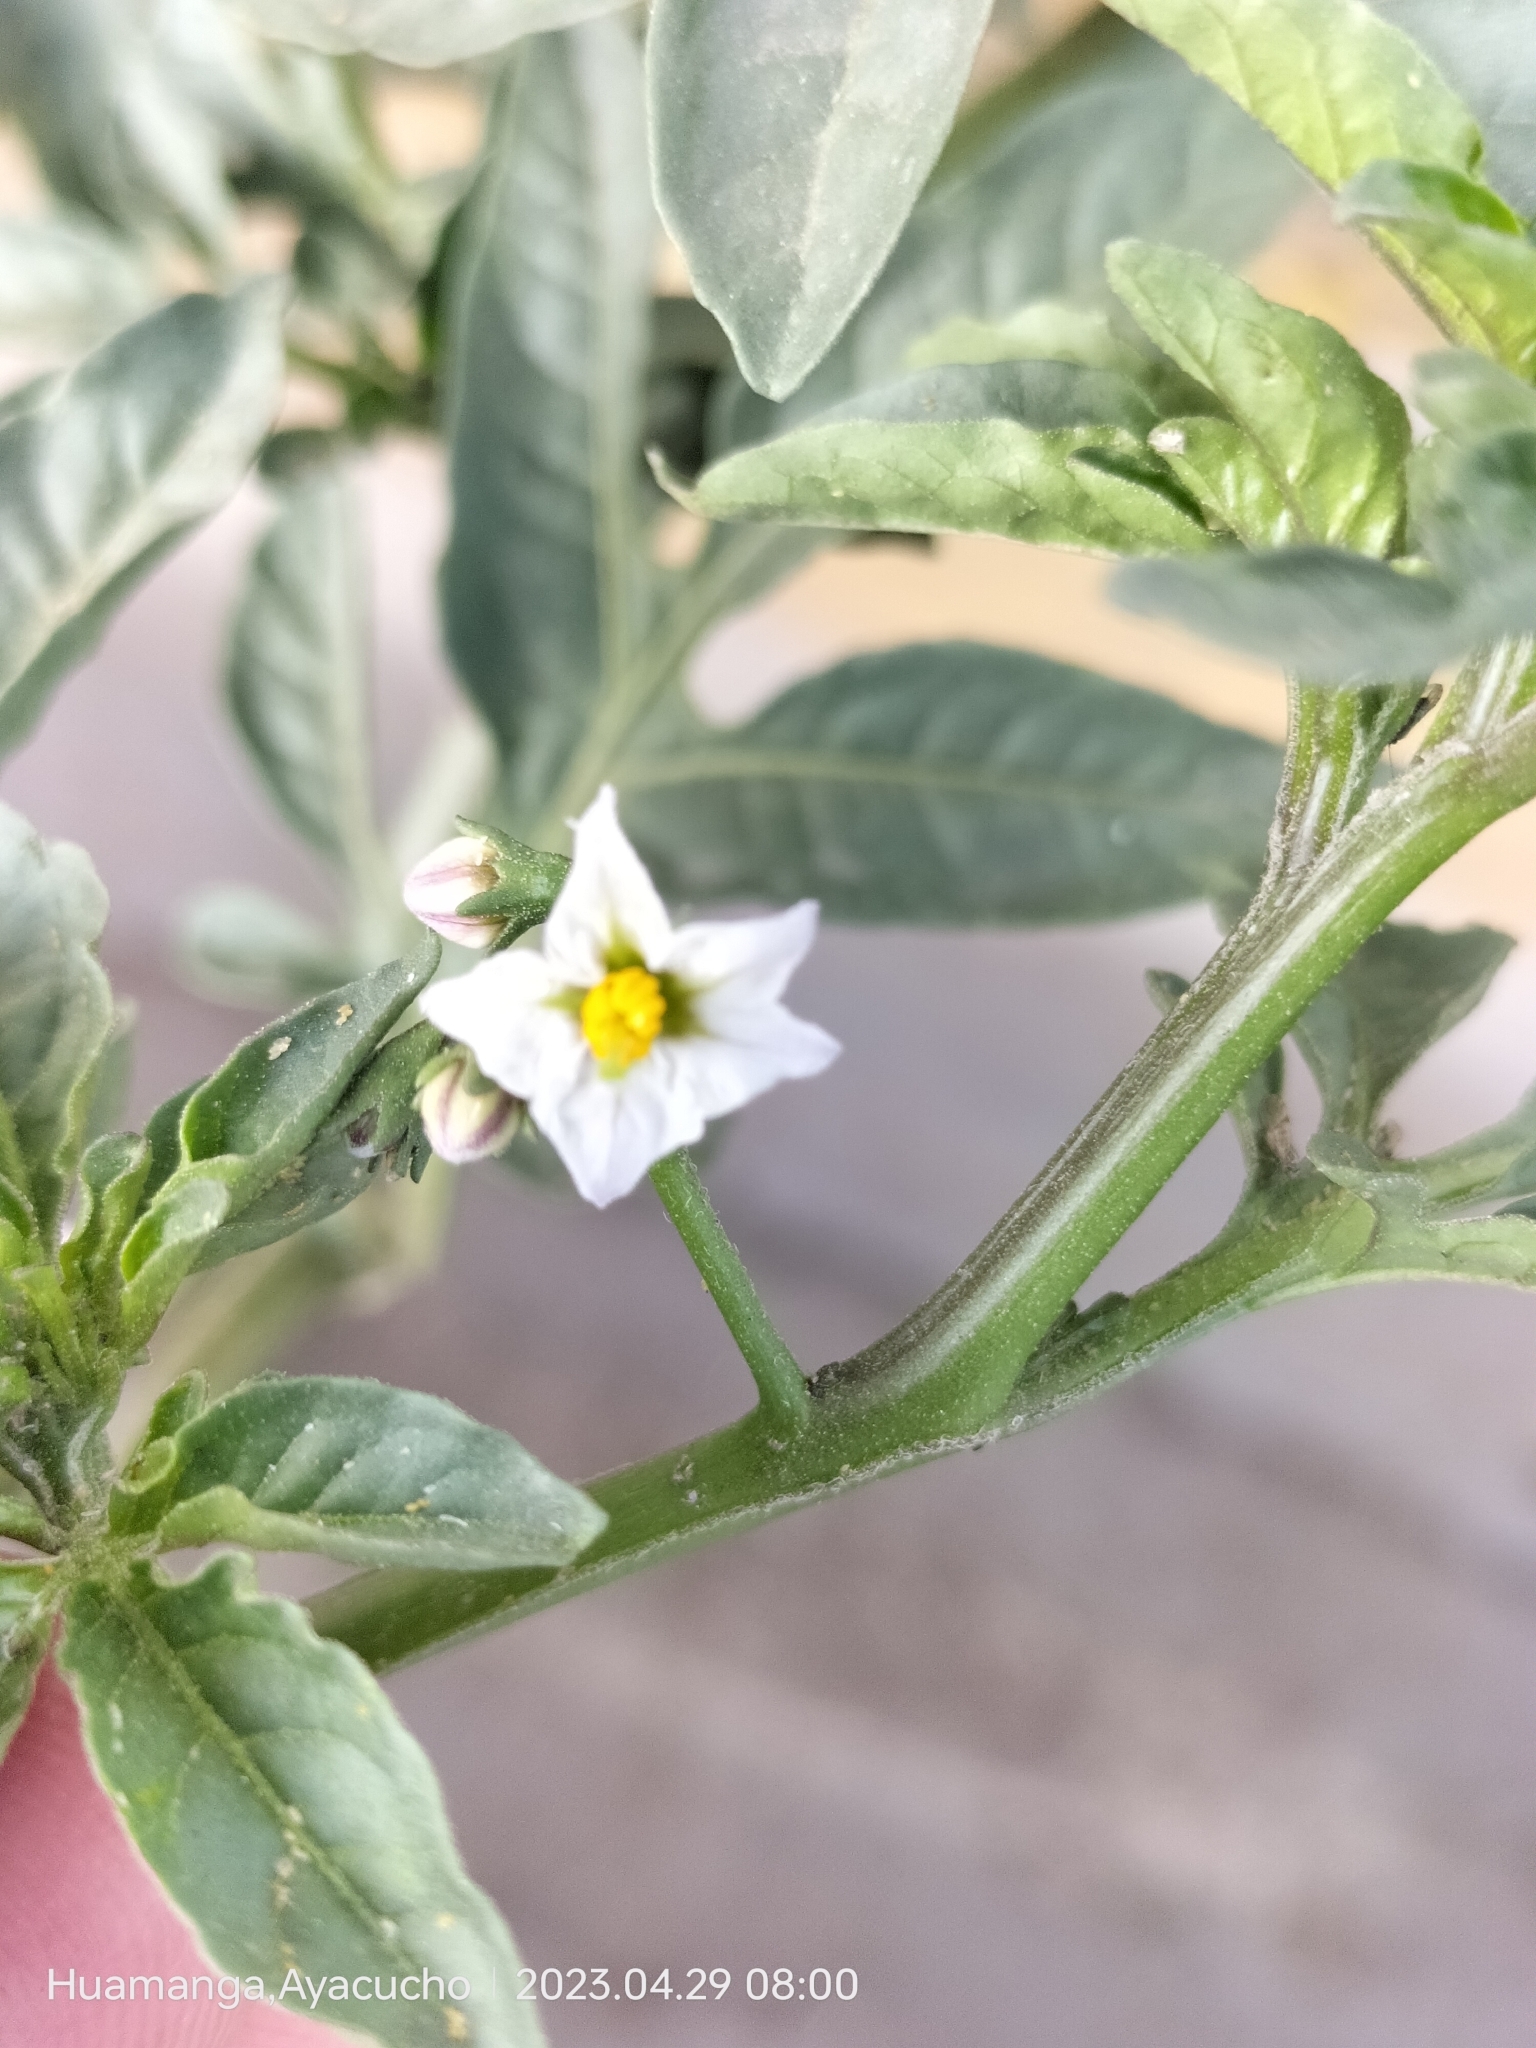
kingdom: Plantae
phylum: Tracheophyta
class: Magnoliopsida
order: Solanales
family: Solanaceae
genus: Solanum
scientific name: Solanum radicans
